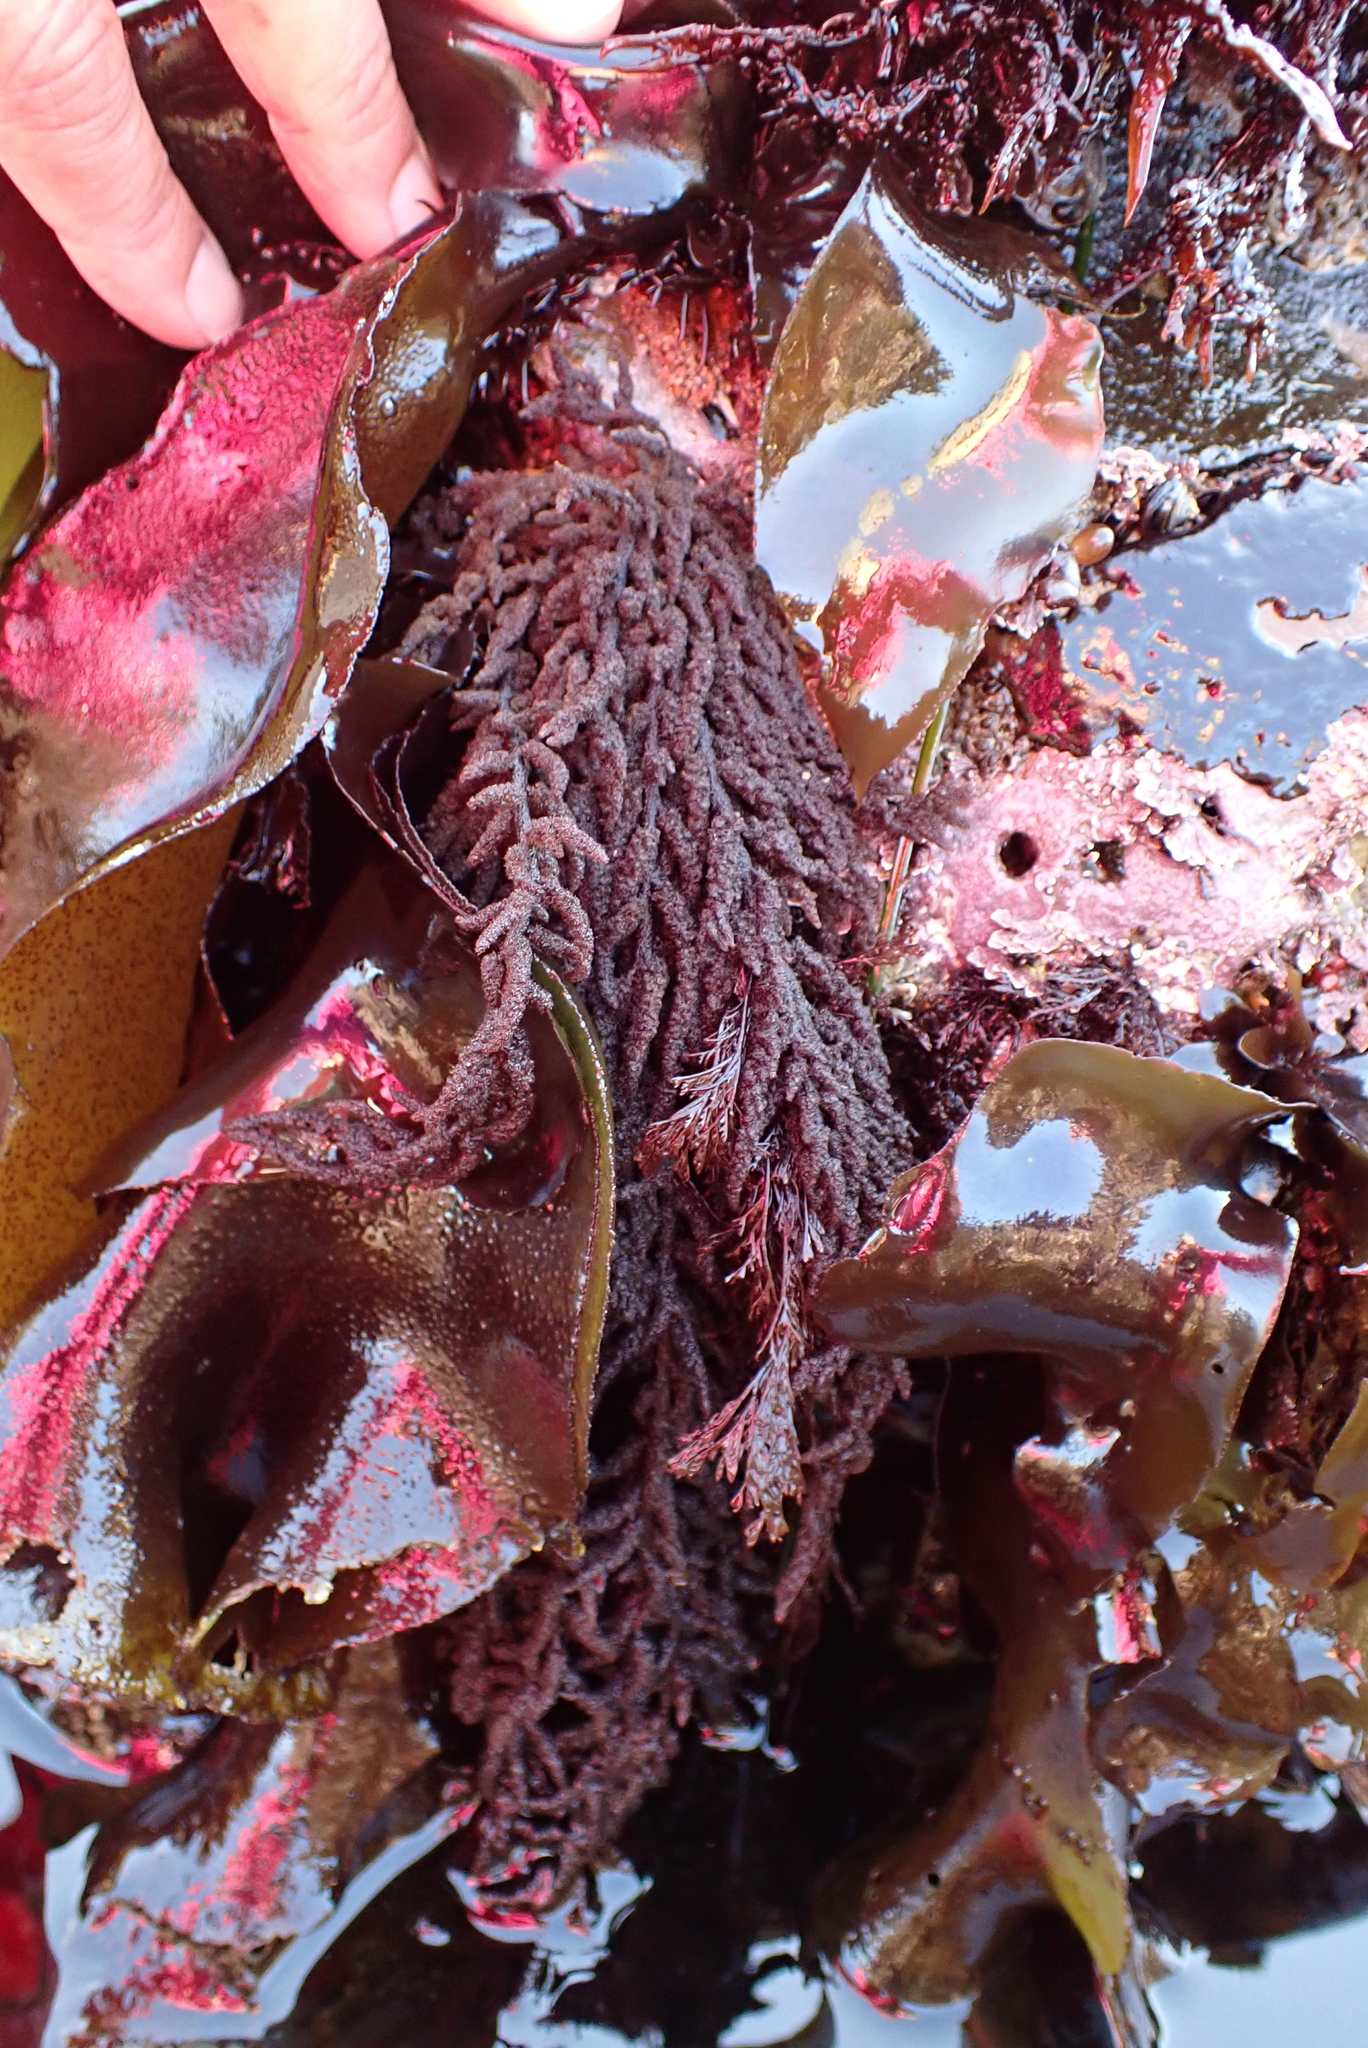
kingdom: Plantae
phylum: Rhodophyta
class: Florideophyceae
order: Ceramiales
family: Callithamniaceae
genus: Callithamnion
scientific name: Callithamnion pikeanum
